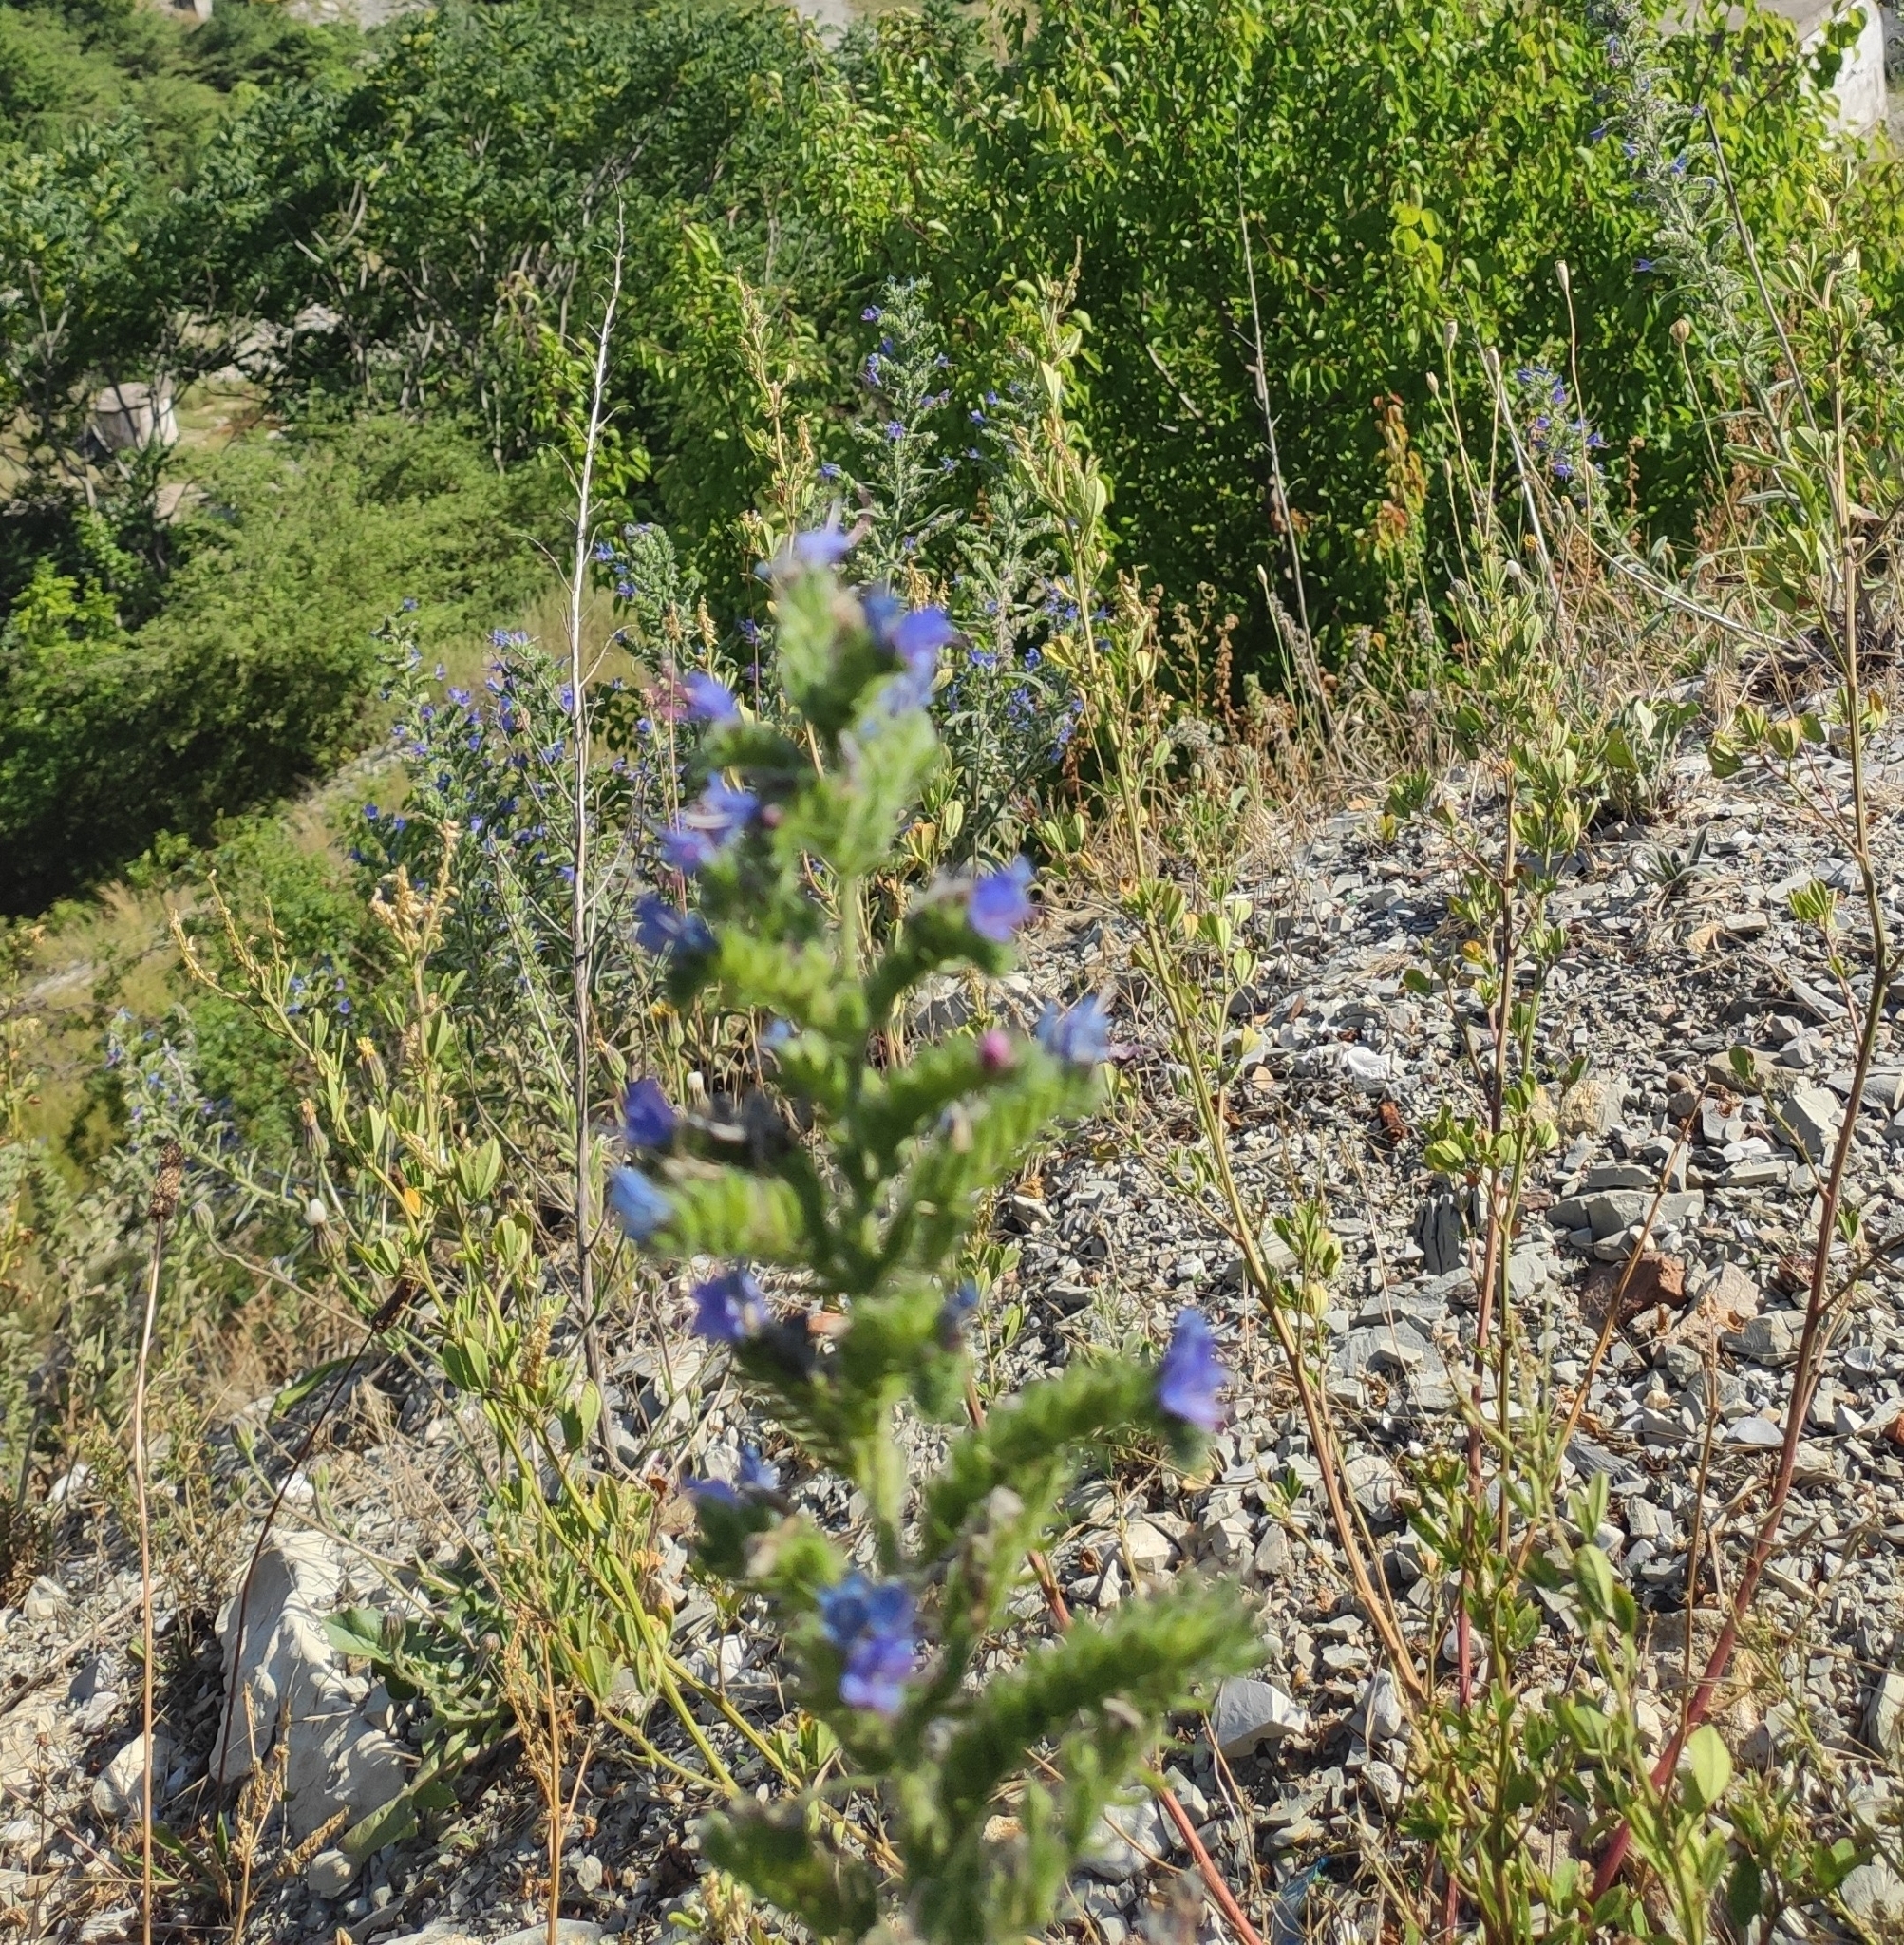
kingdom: Plantae
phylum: Tracheophyta
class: Magnoliopsida
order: Boraginales
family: Boraginaceae
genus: Echium
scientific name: Echium vulgare
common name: Common viper's bugloss
